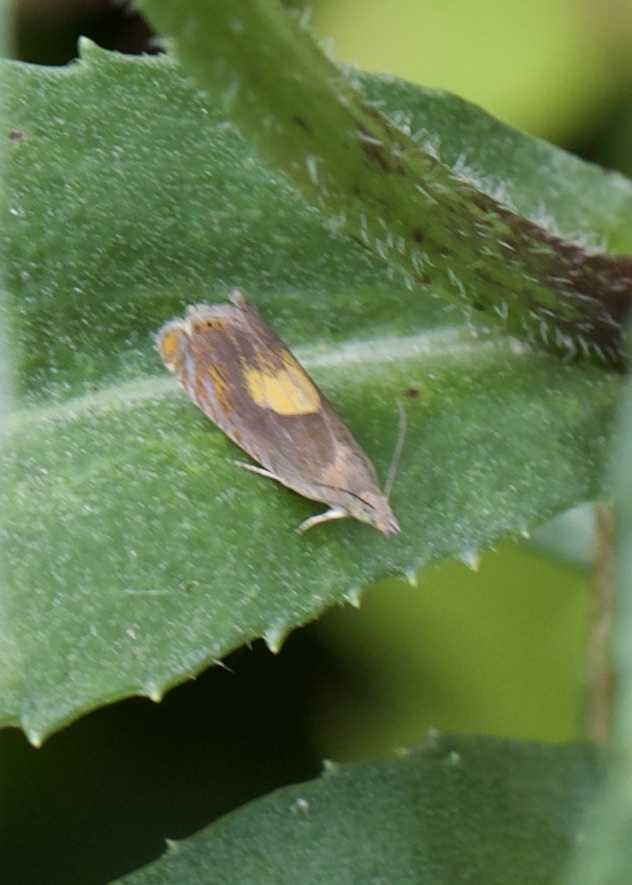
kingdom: Animalia
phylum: Arthropoda
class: Insecta
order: Lepidoptera
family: Tortricidae
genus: Dichrorampha
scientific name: Dichrorampha alpinana
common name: Broad-blotch drill
